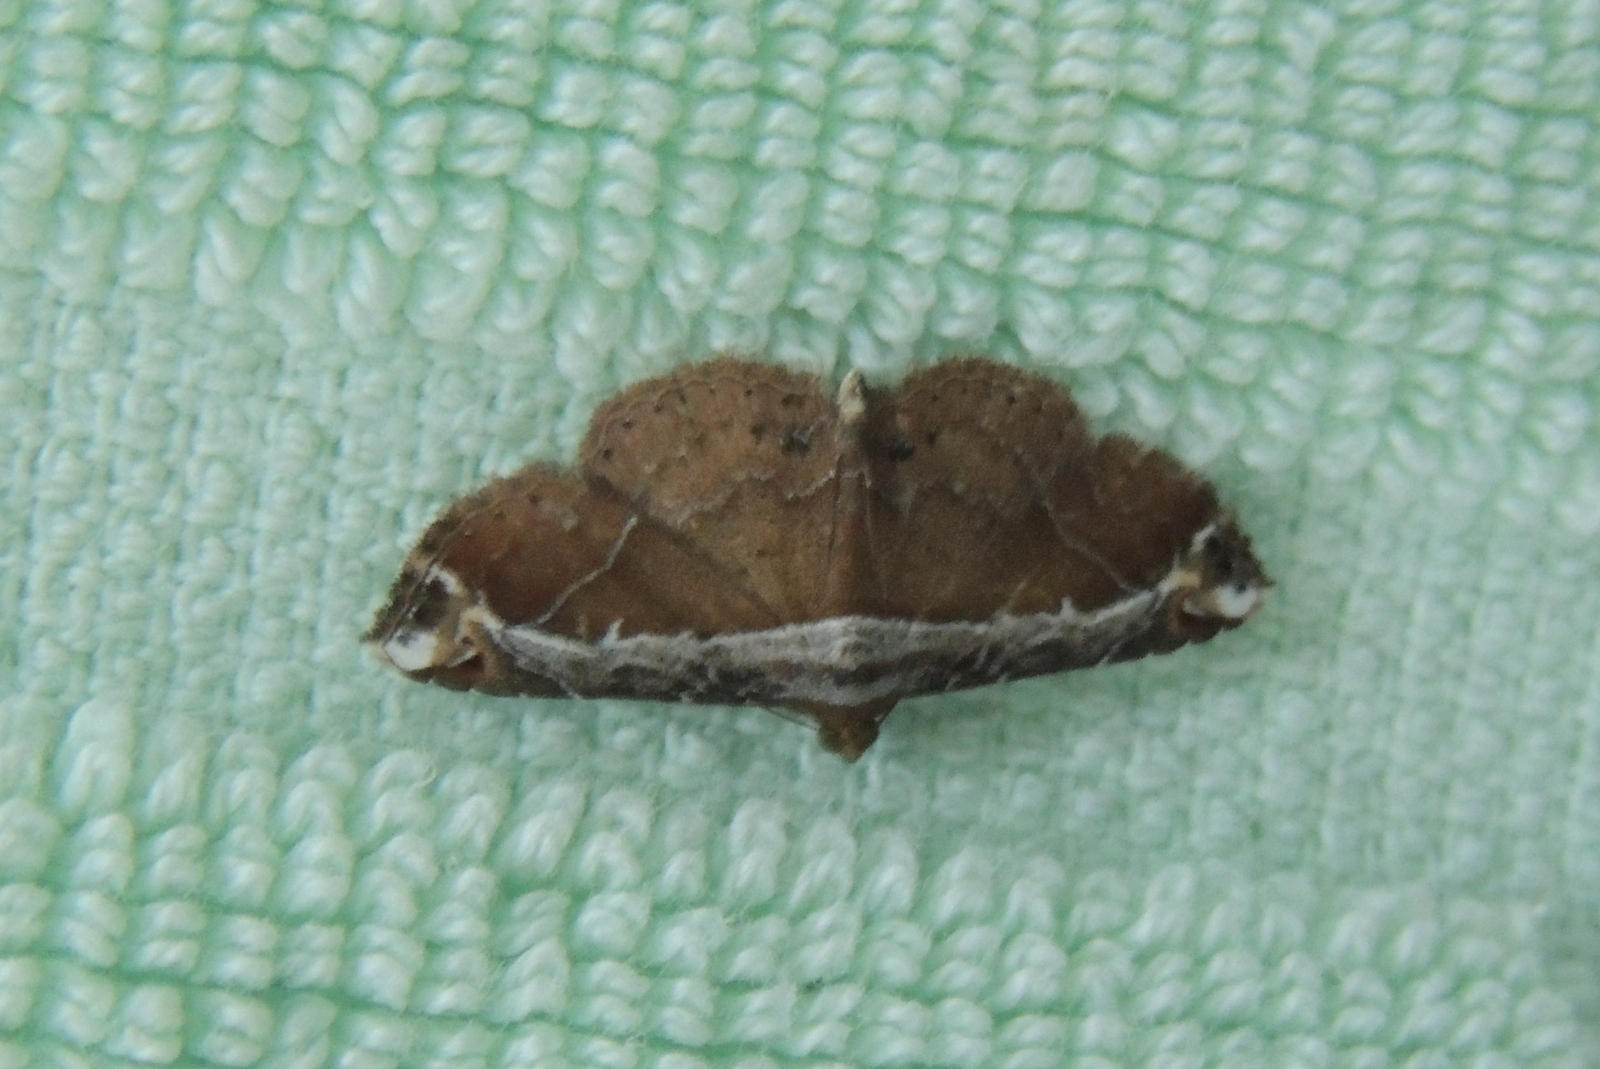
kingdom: Animalia
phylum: Arthropoda
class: Insecta
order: Lepidoptera
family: Erebidae
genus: Zurobata
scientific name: Zurobata vacillans
